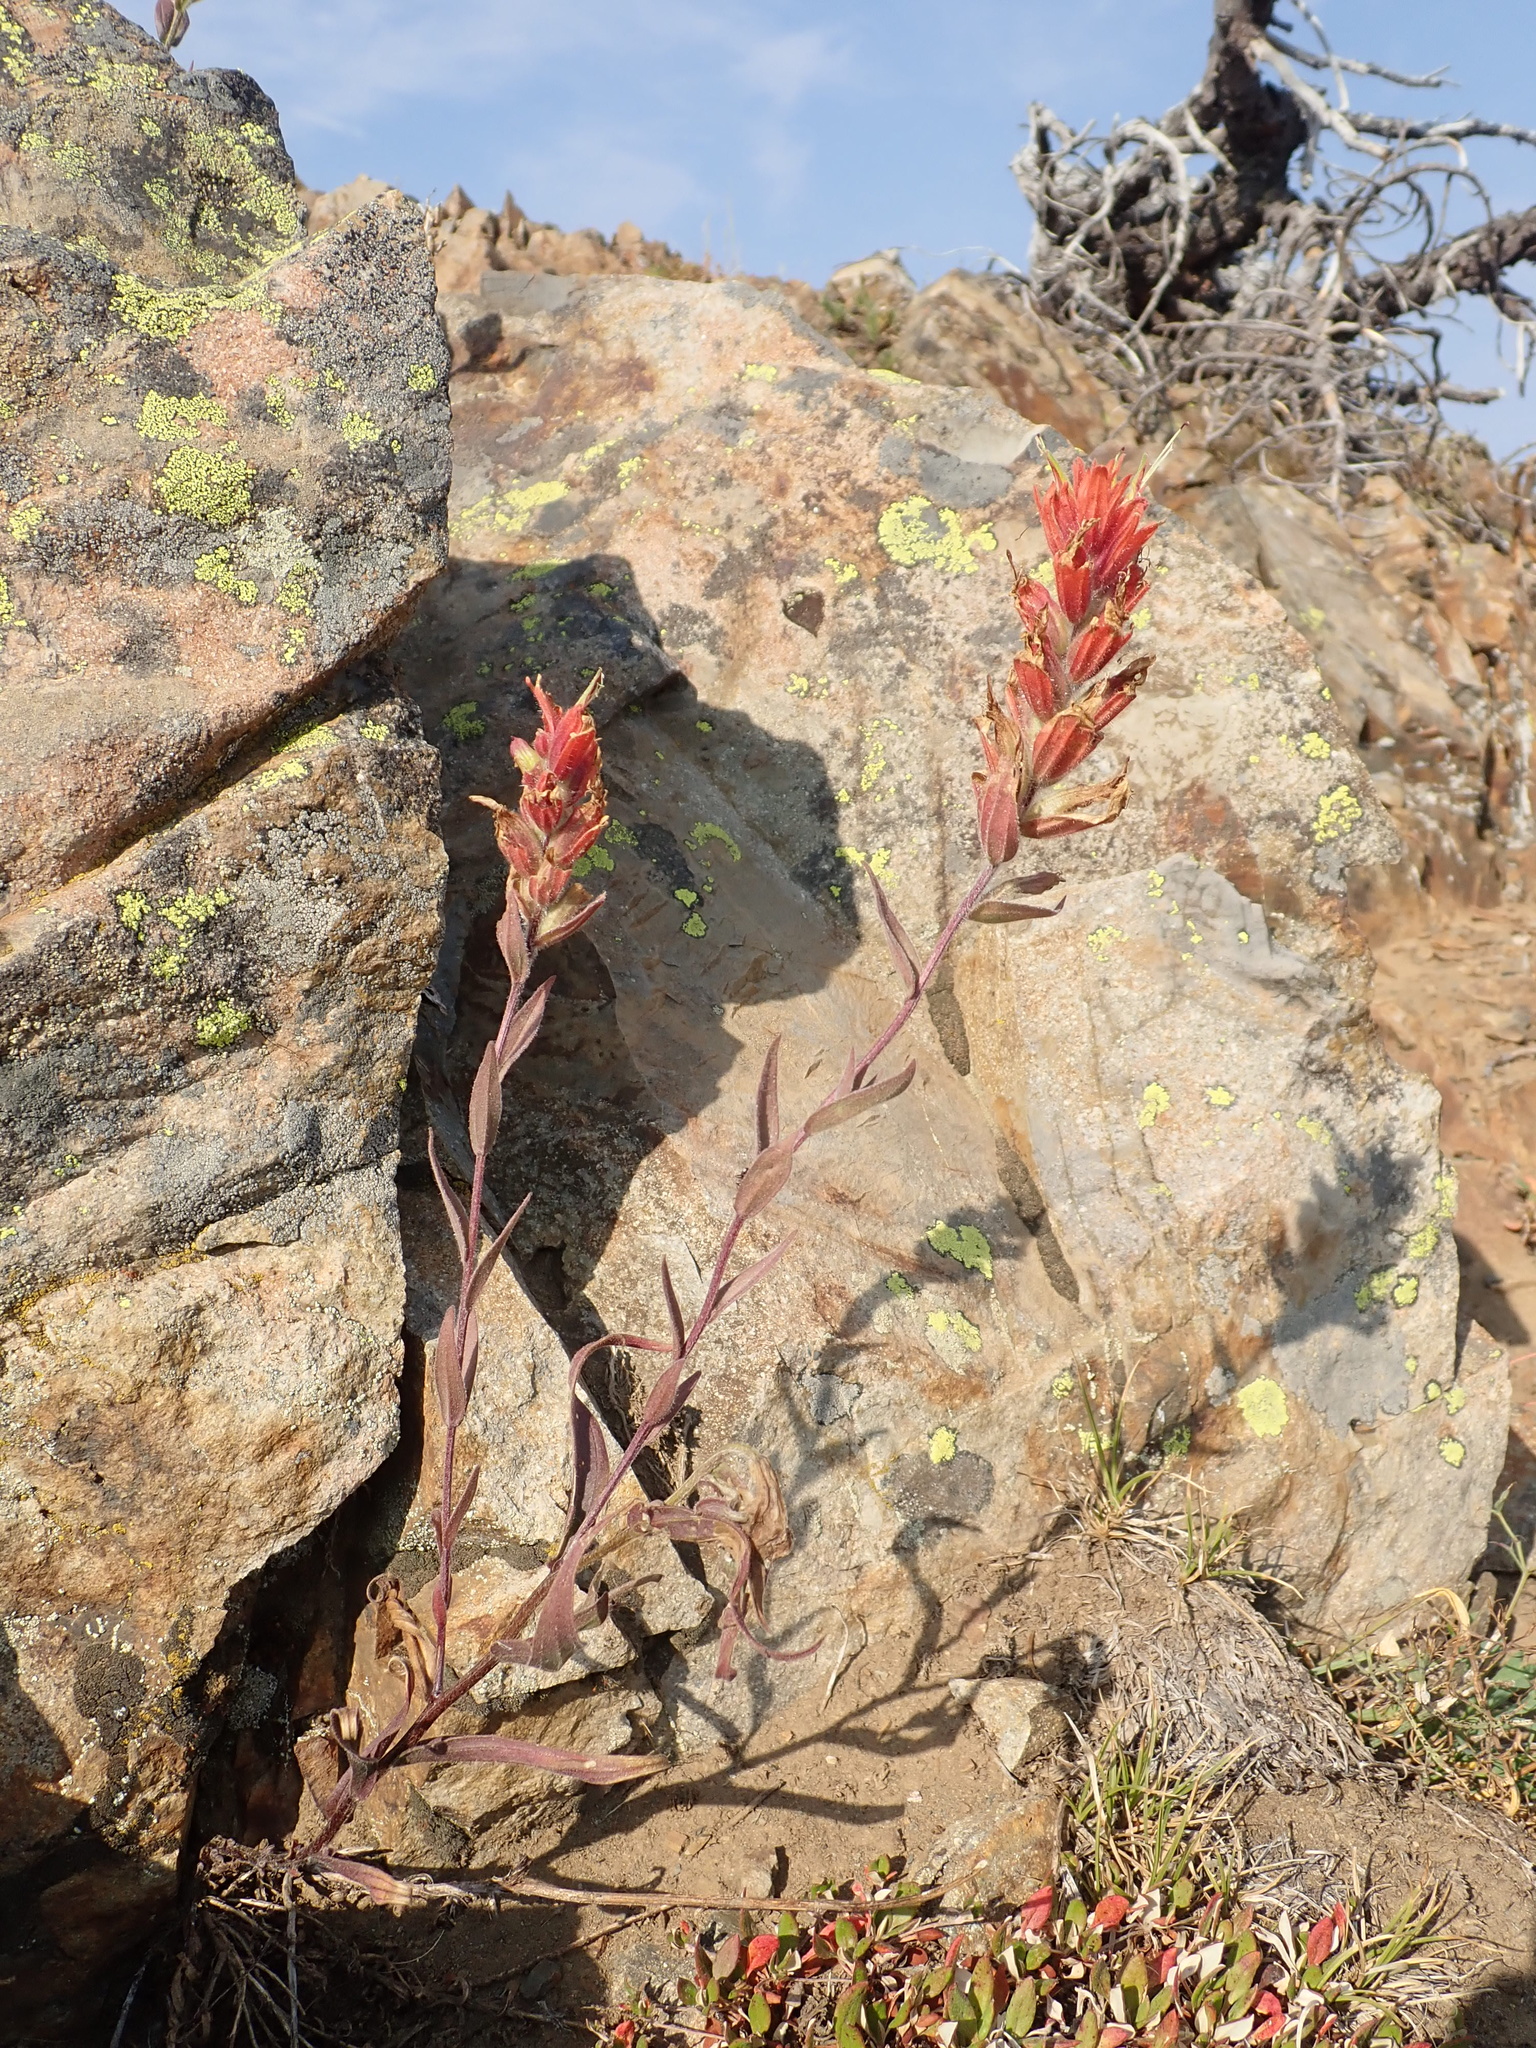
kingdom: Plantae
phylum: Tracheophyta
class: Magnoliopsida
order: Lamiales
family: Orobanchaceae
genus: Castilleja
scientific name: Castilleja elmeri
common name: Elmer's paintbrush
